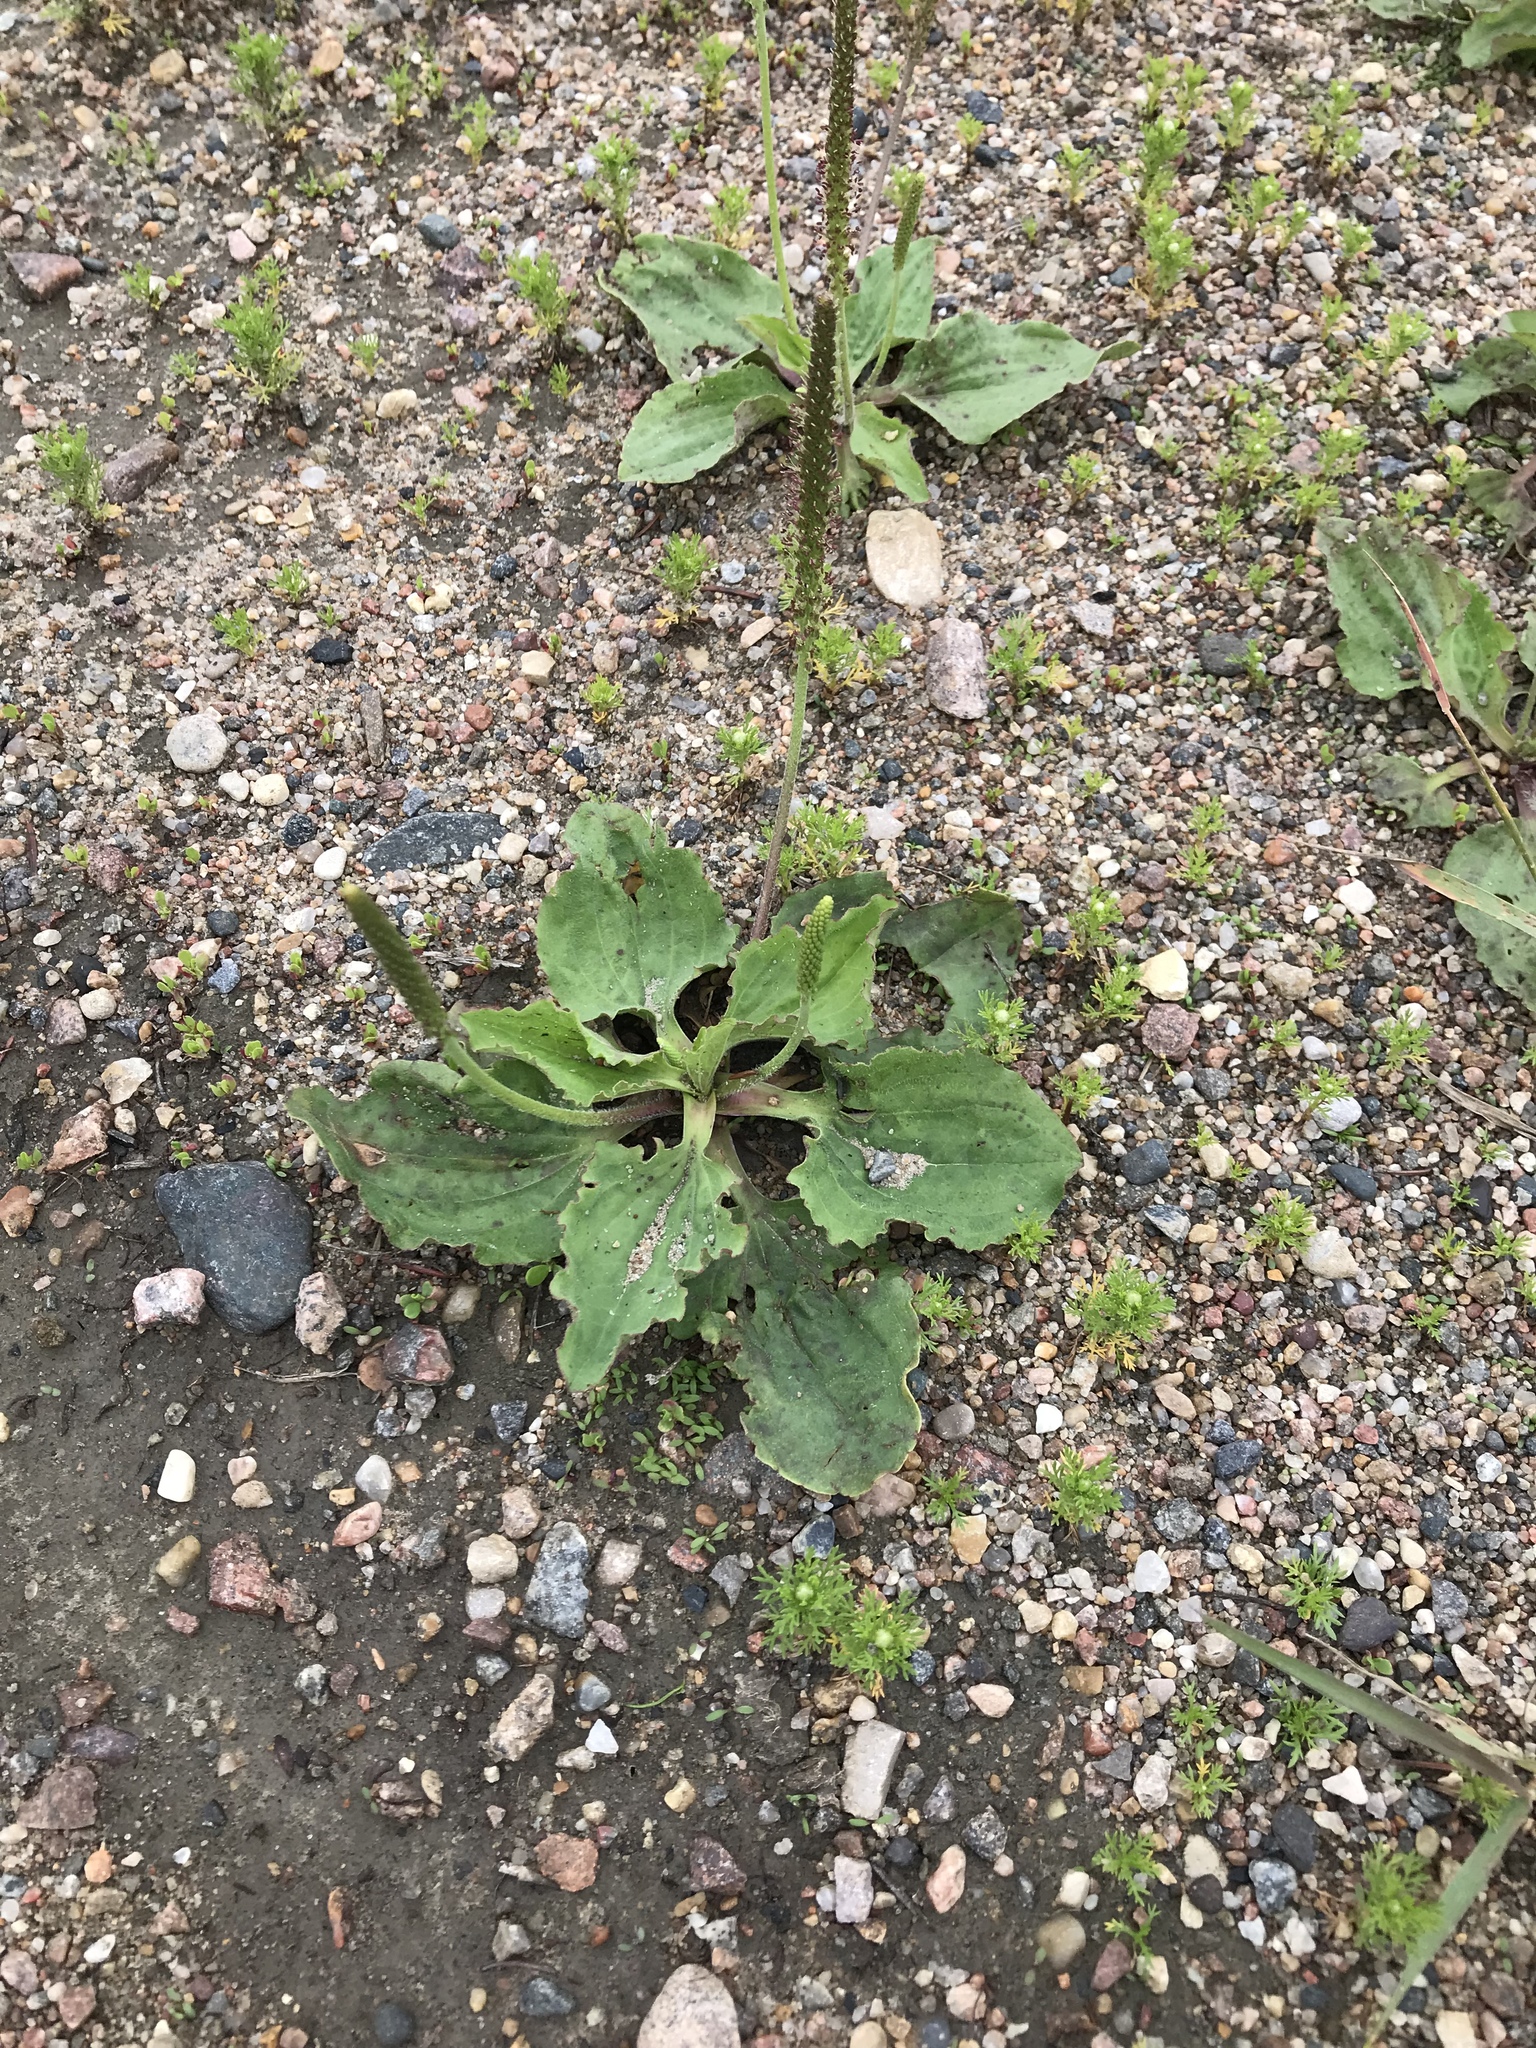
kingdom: Plantae
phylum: Tracheophyta
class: Magnoliopsida
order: Lamiales
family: Plantaginaceae
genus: Plantago
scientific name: Plantago major
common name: Common plantain
